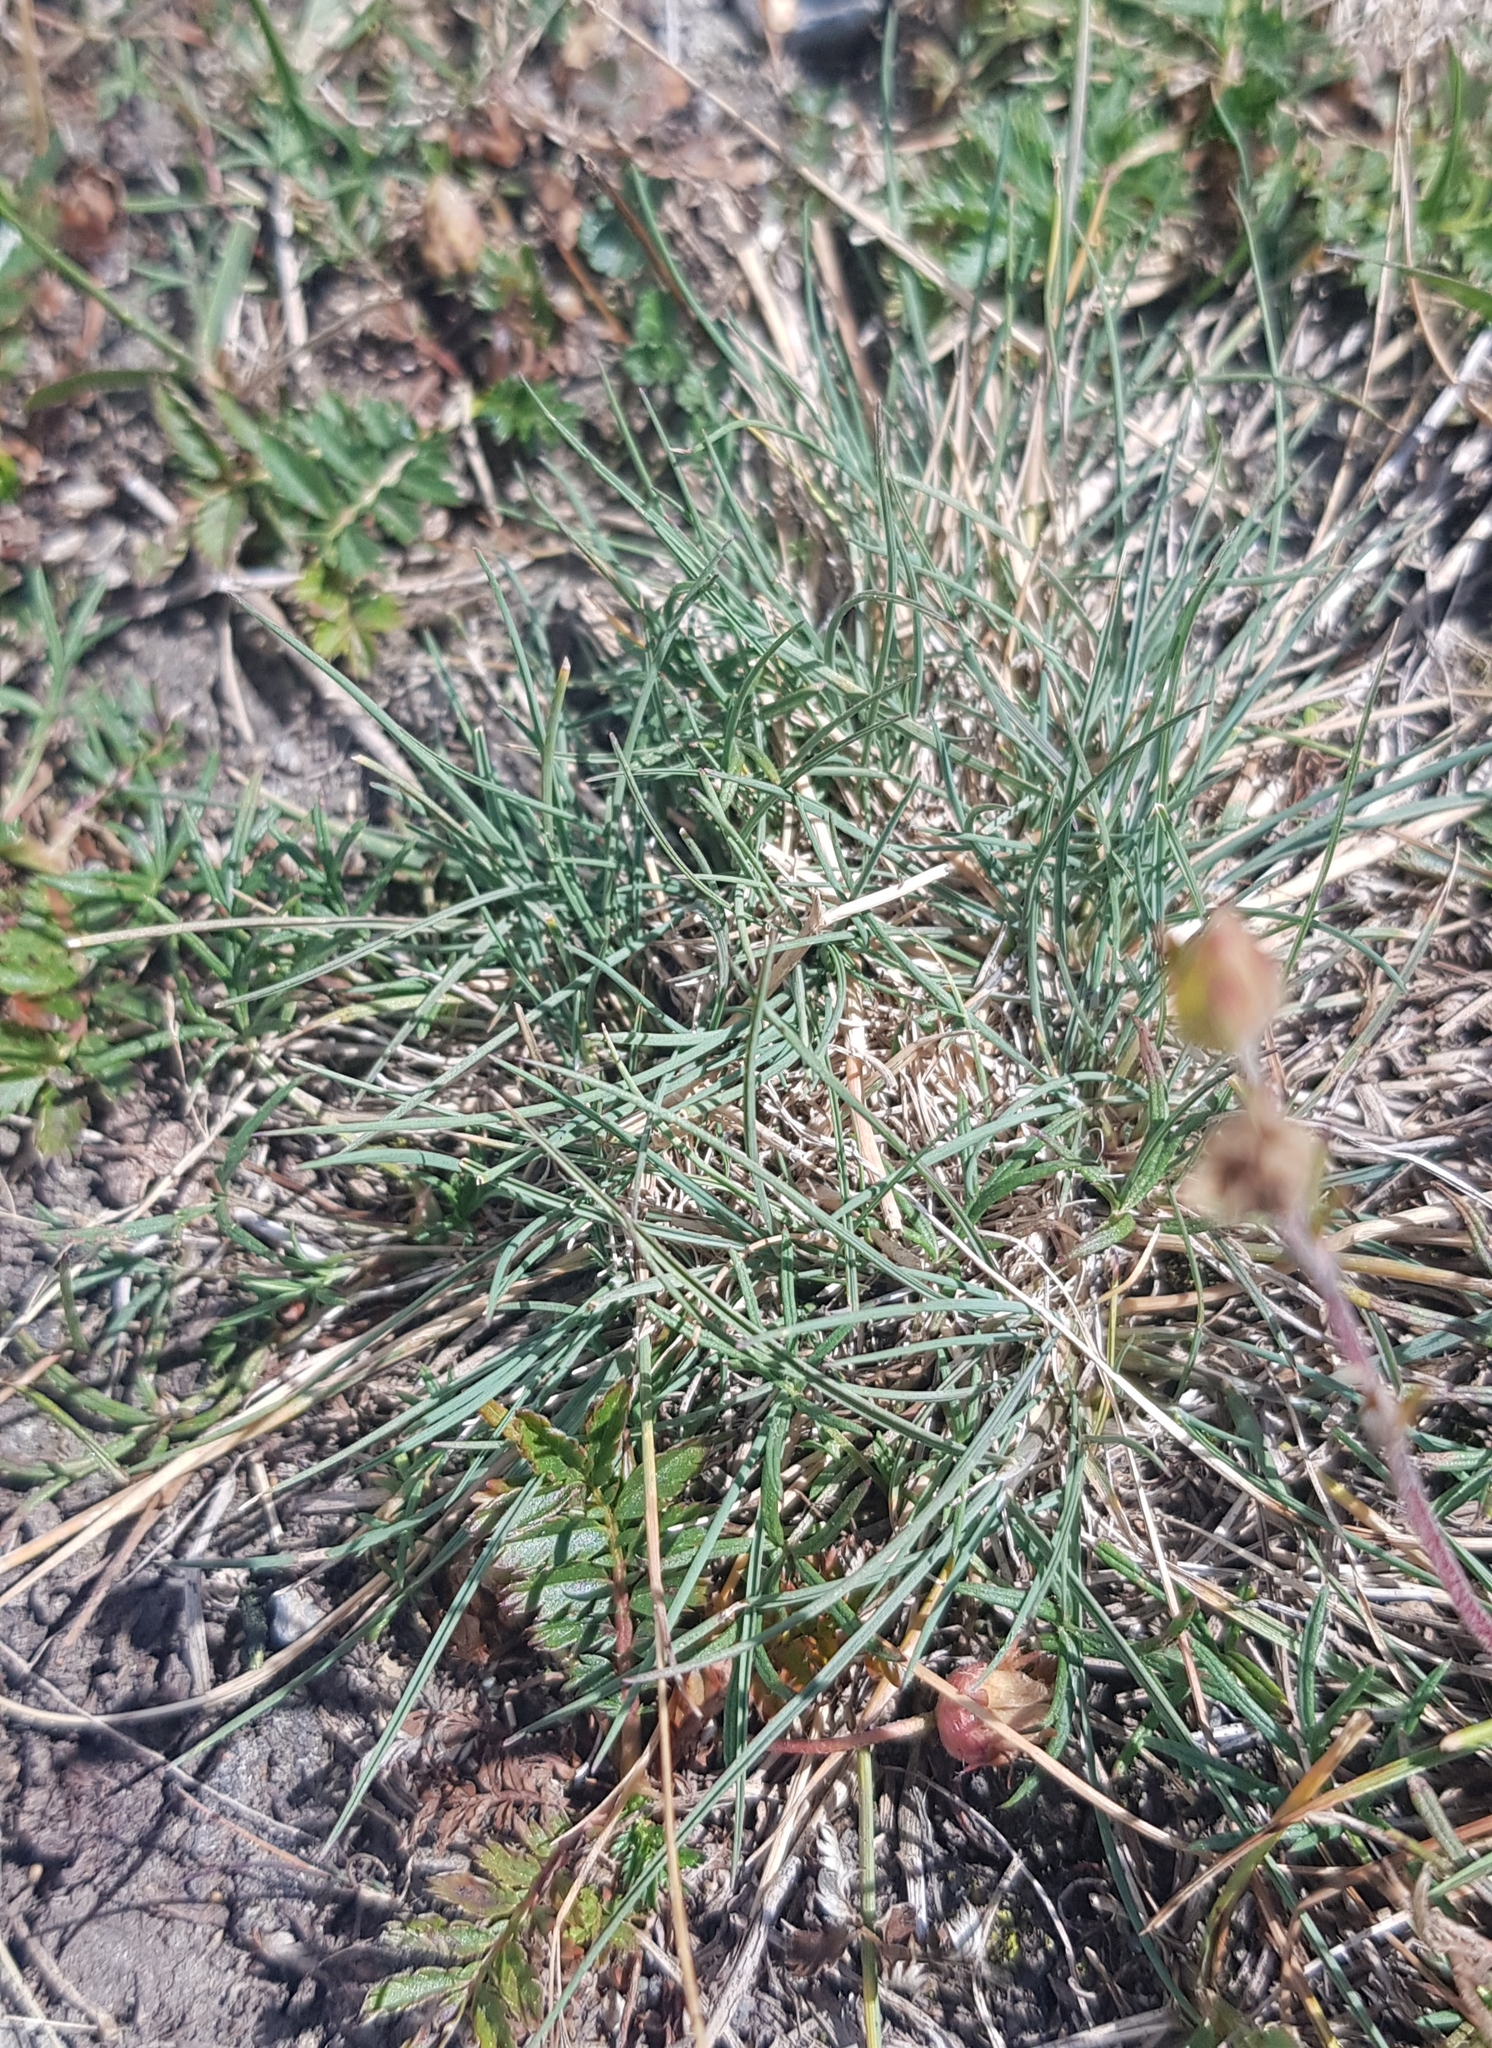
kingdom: Plantae
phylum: Tracheophyta
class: Liliopsida
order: Poales
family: Poaceae
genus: Festuca
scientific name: Festuca lenensis
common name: Lena river fescue
